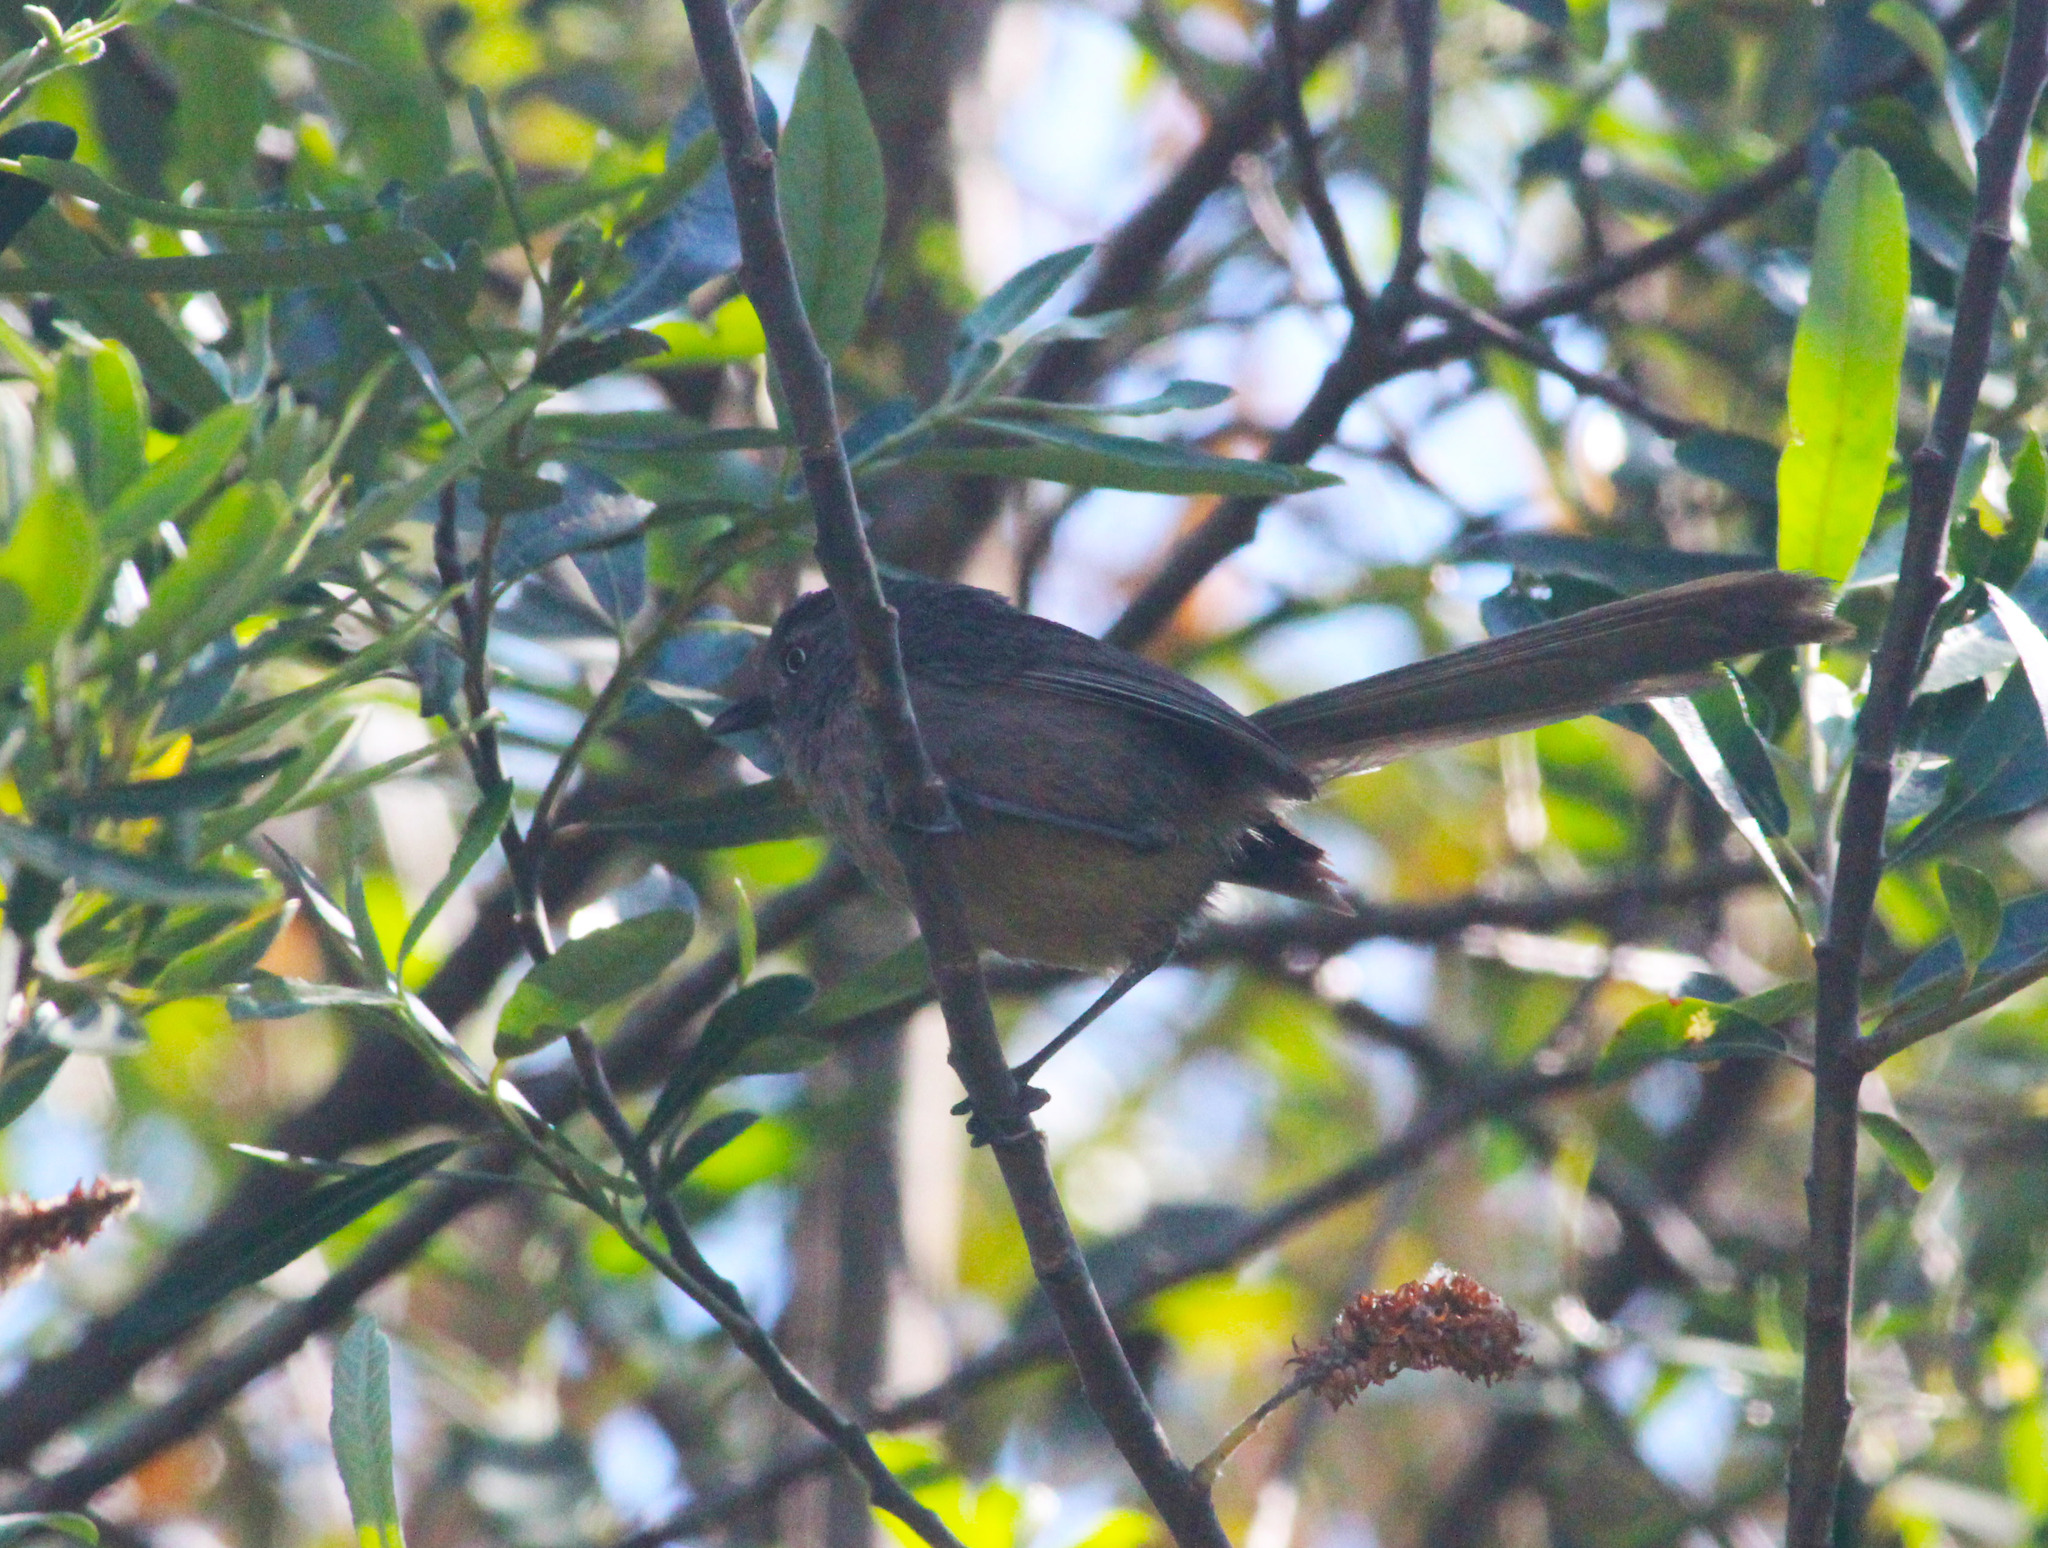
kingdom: Animalia
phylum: Chordata
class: Aves
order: Passeriformes
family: Sylviidae
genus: Chamaea
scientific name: Chamaea fasciata
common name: Wrentit
